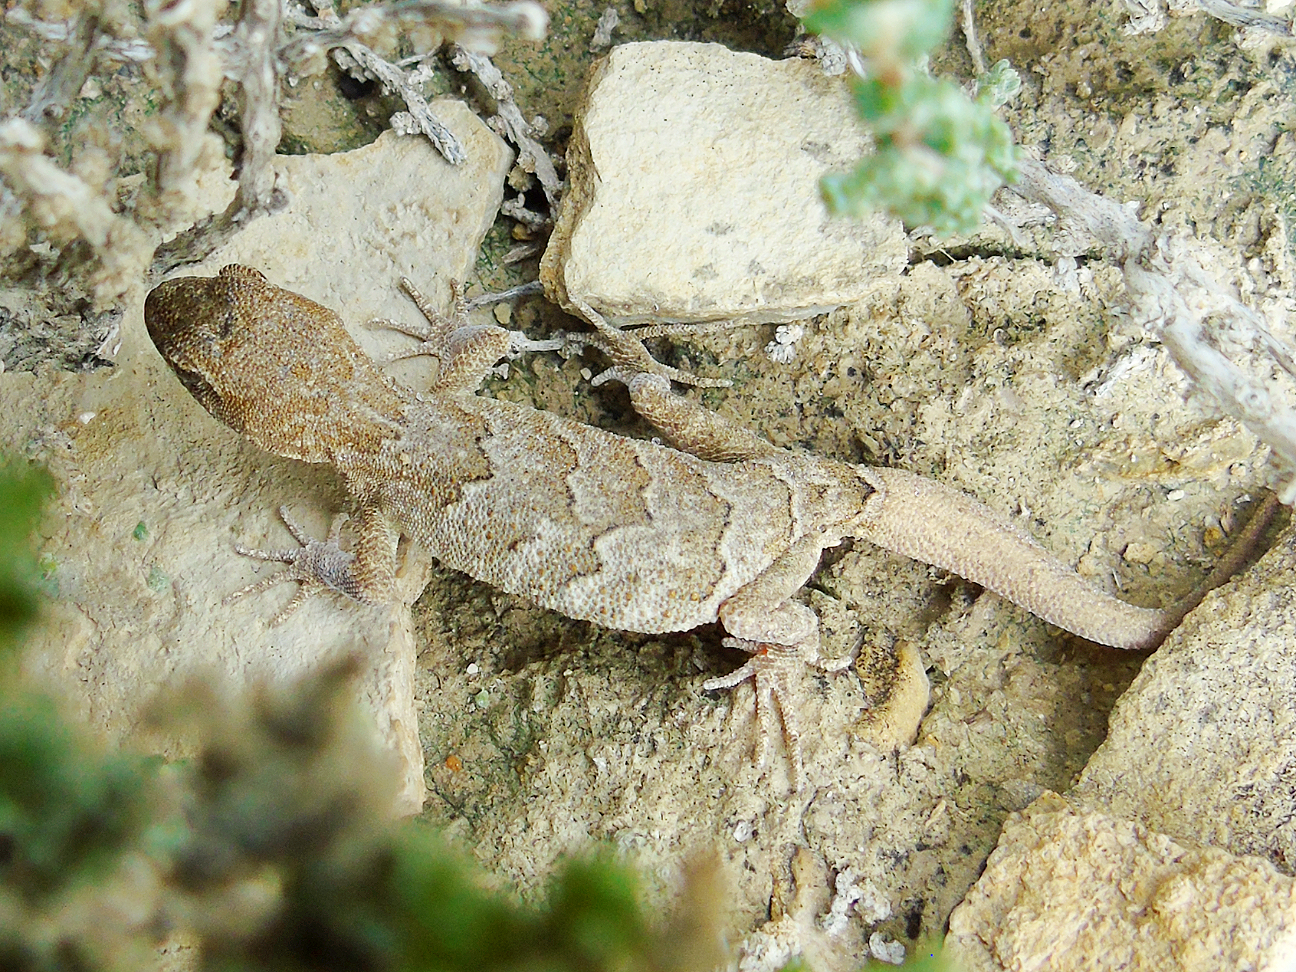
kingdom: Animalia
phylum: Chordata
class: Squamata
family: Gekkonidae
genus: Altiphylax
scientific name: Altiphylax tokobajevi
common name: Kirghizia even-fingered gecko
